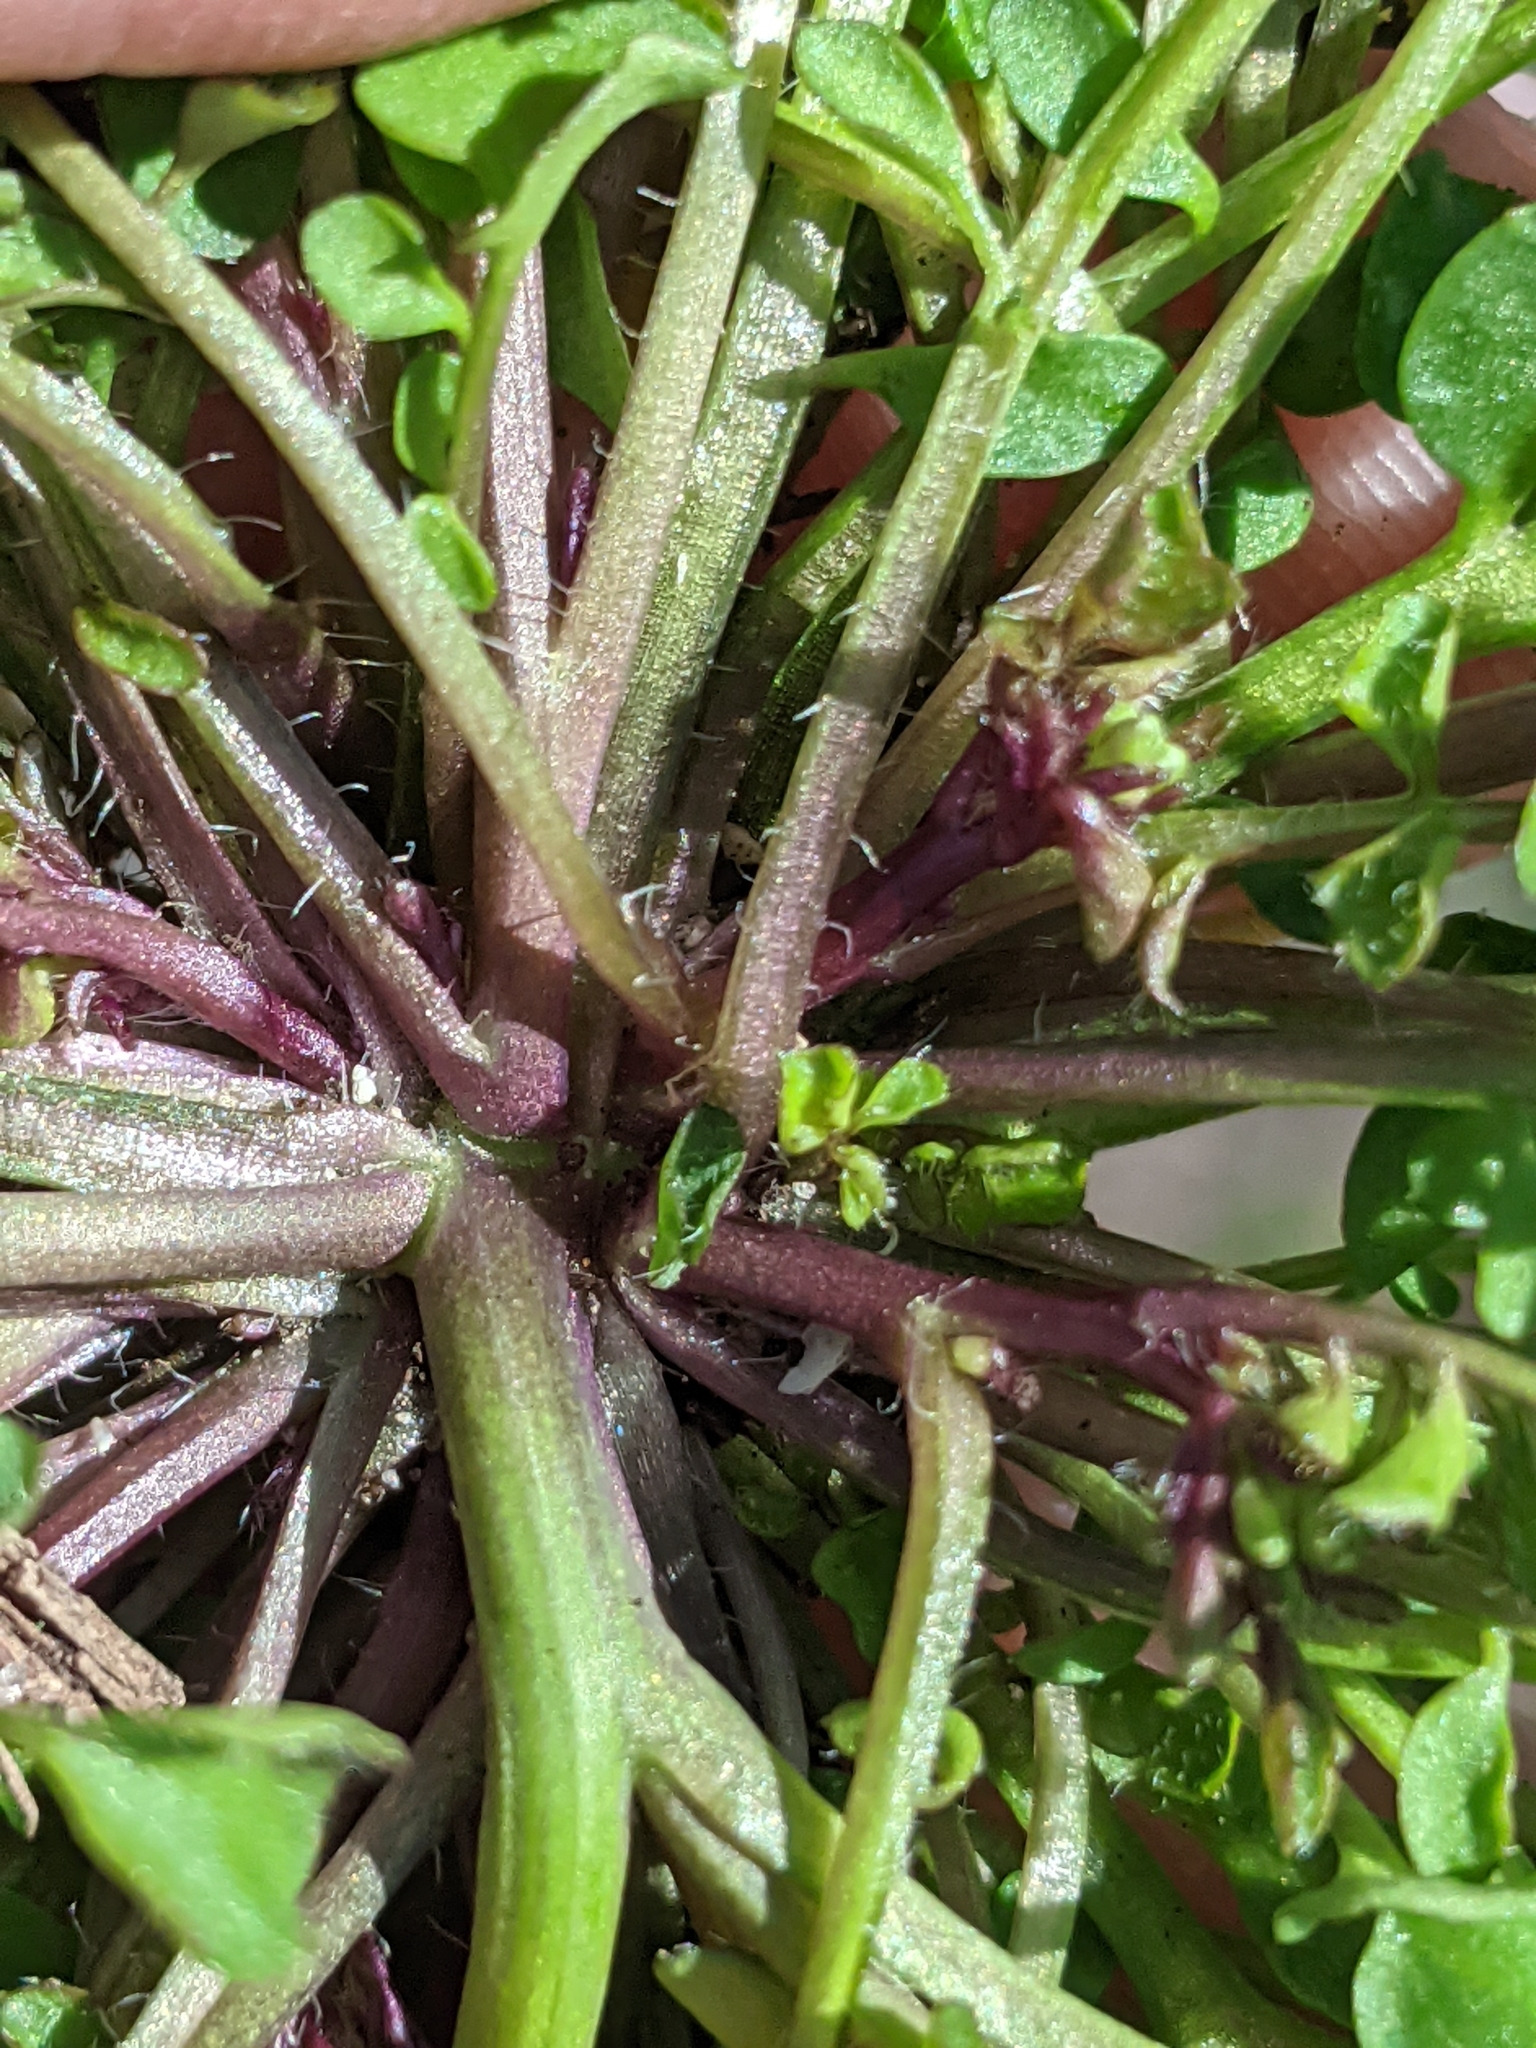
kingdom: Plantae
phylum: Tracheophyta
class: Magnoliopsida
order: Brassicales
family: Brassicaceae
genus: Cardamine
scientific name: Cardamine hirsuta
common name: Hairy bittercress
